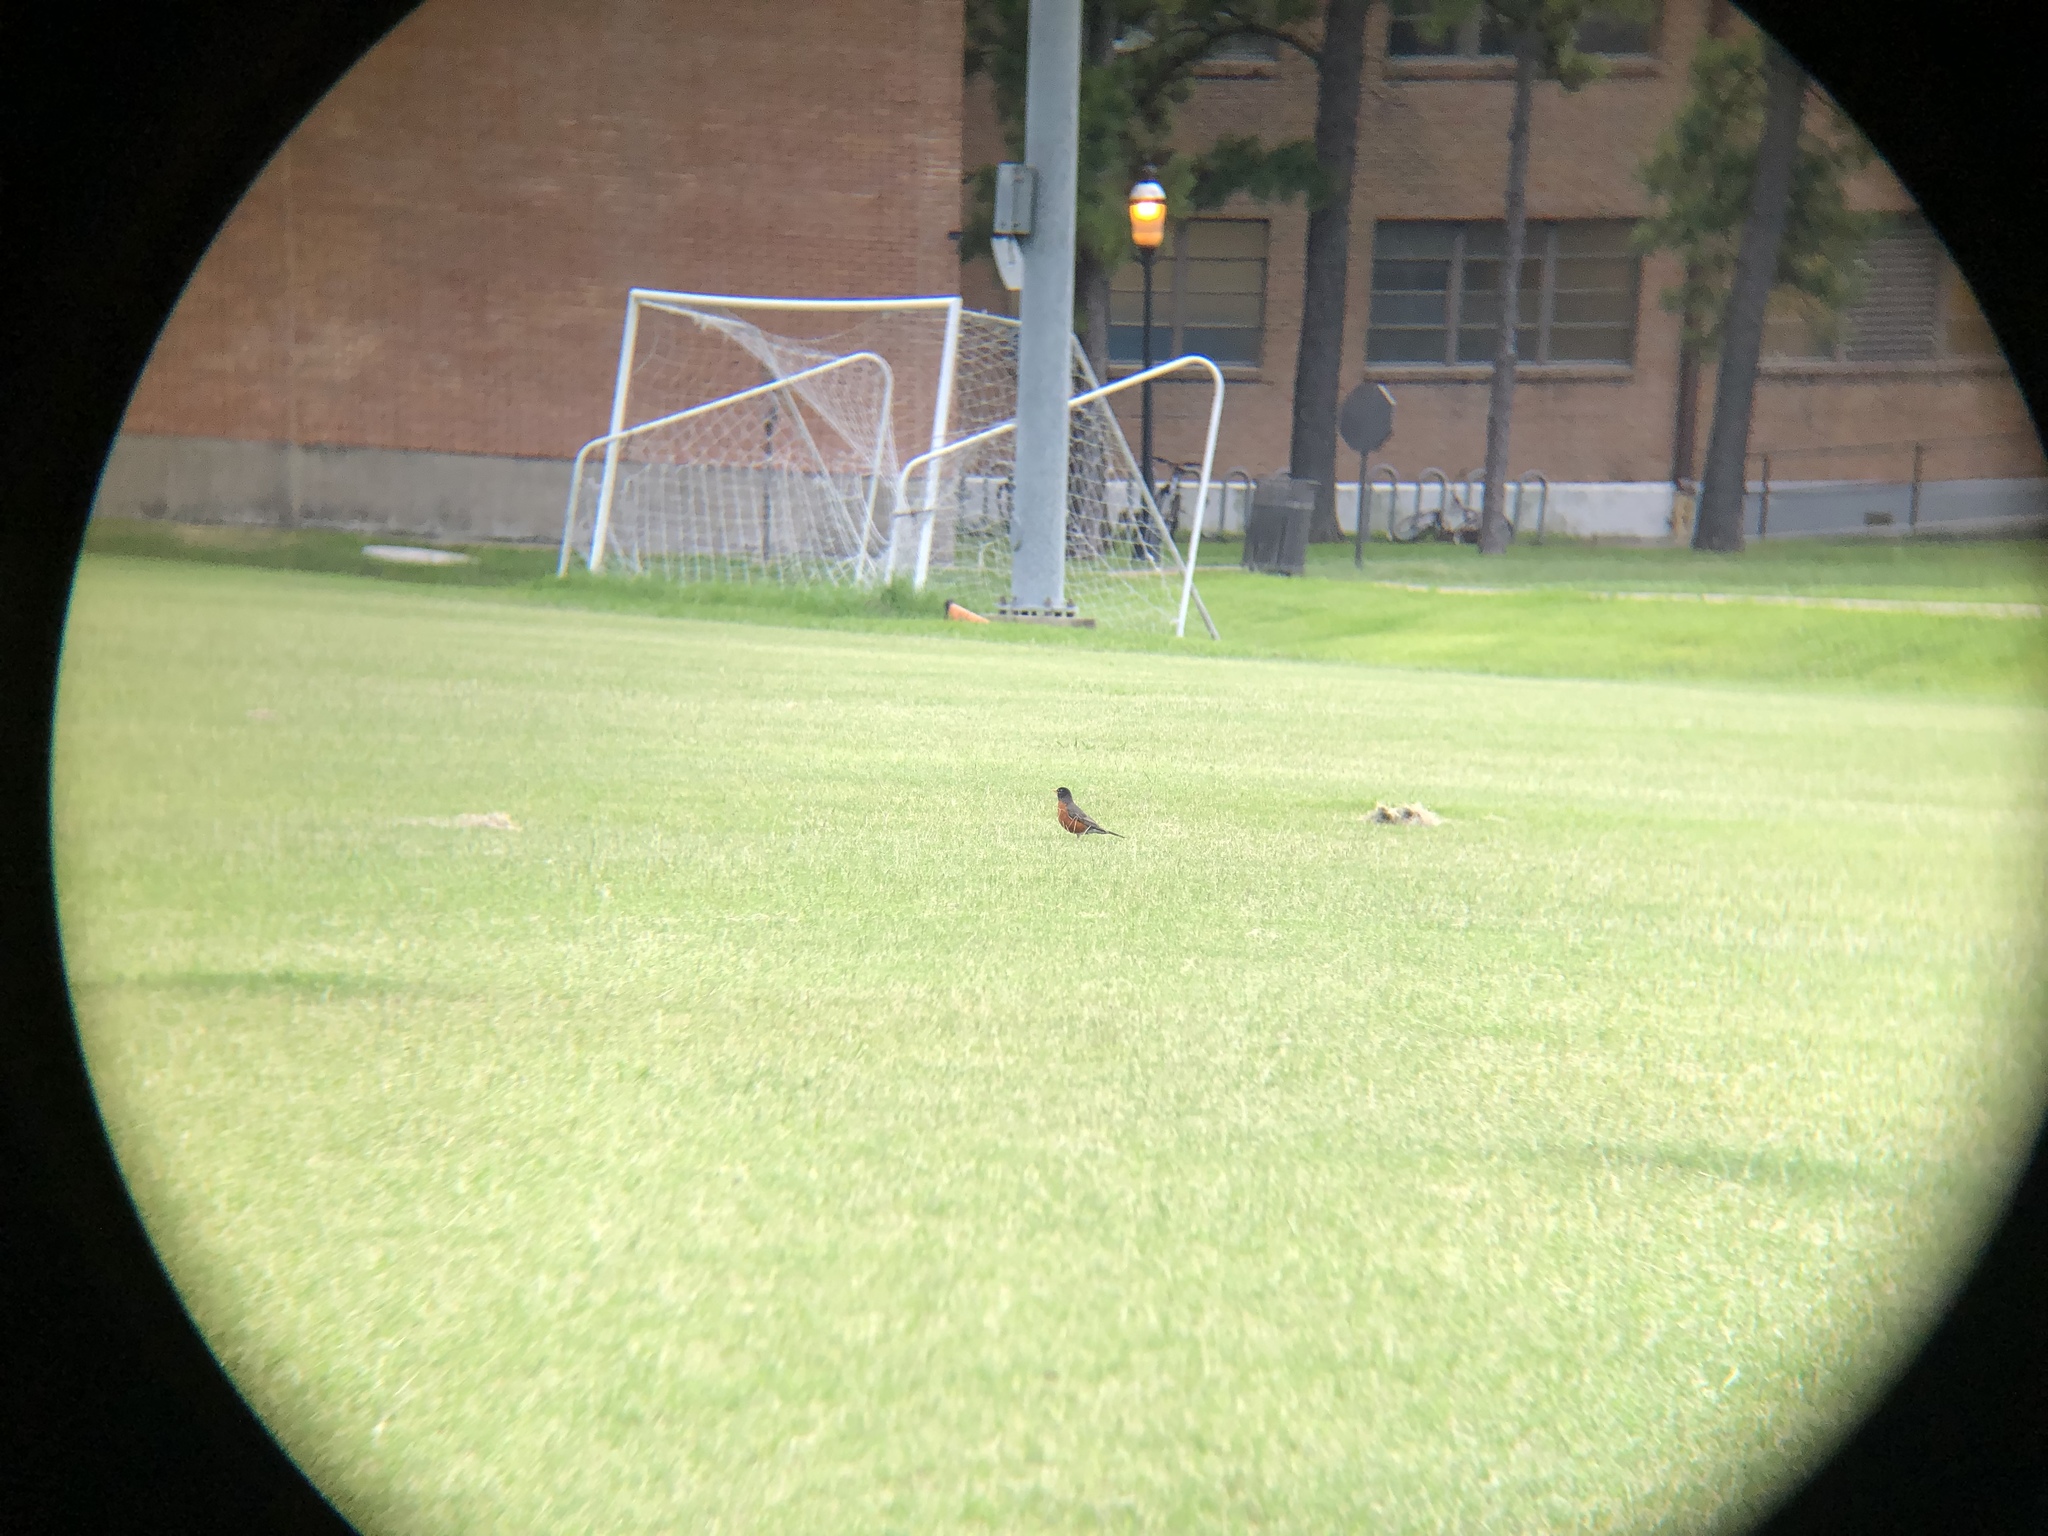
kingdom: Animalia
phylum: Chordata
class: Aves
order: Passeriformes
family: Turdidae
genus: Turdus
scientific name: Turdus migratorius
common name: American robin
